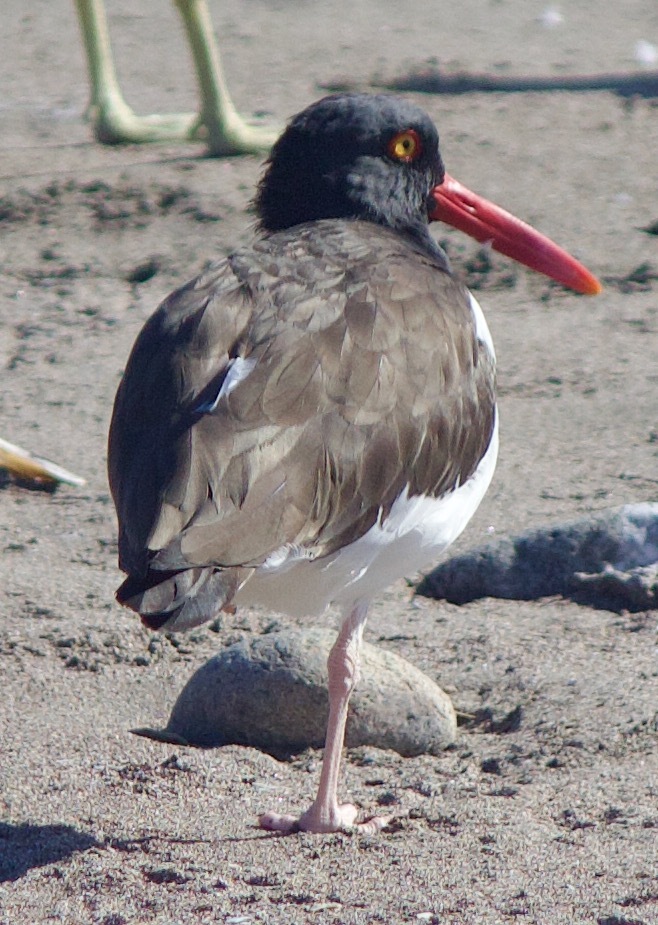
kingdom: Animalia
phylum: Chordata
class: Aves
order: Charadriiformes
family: Haematopodidae
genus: Haematopus
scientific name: Haematopus palliatus
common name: American oystercatcher
